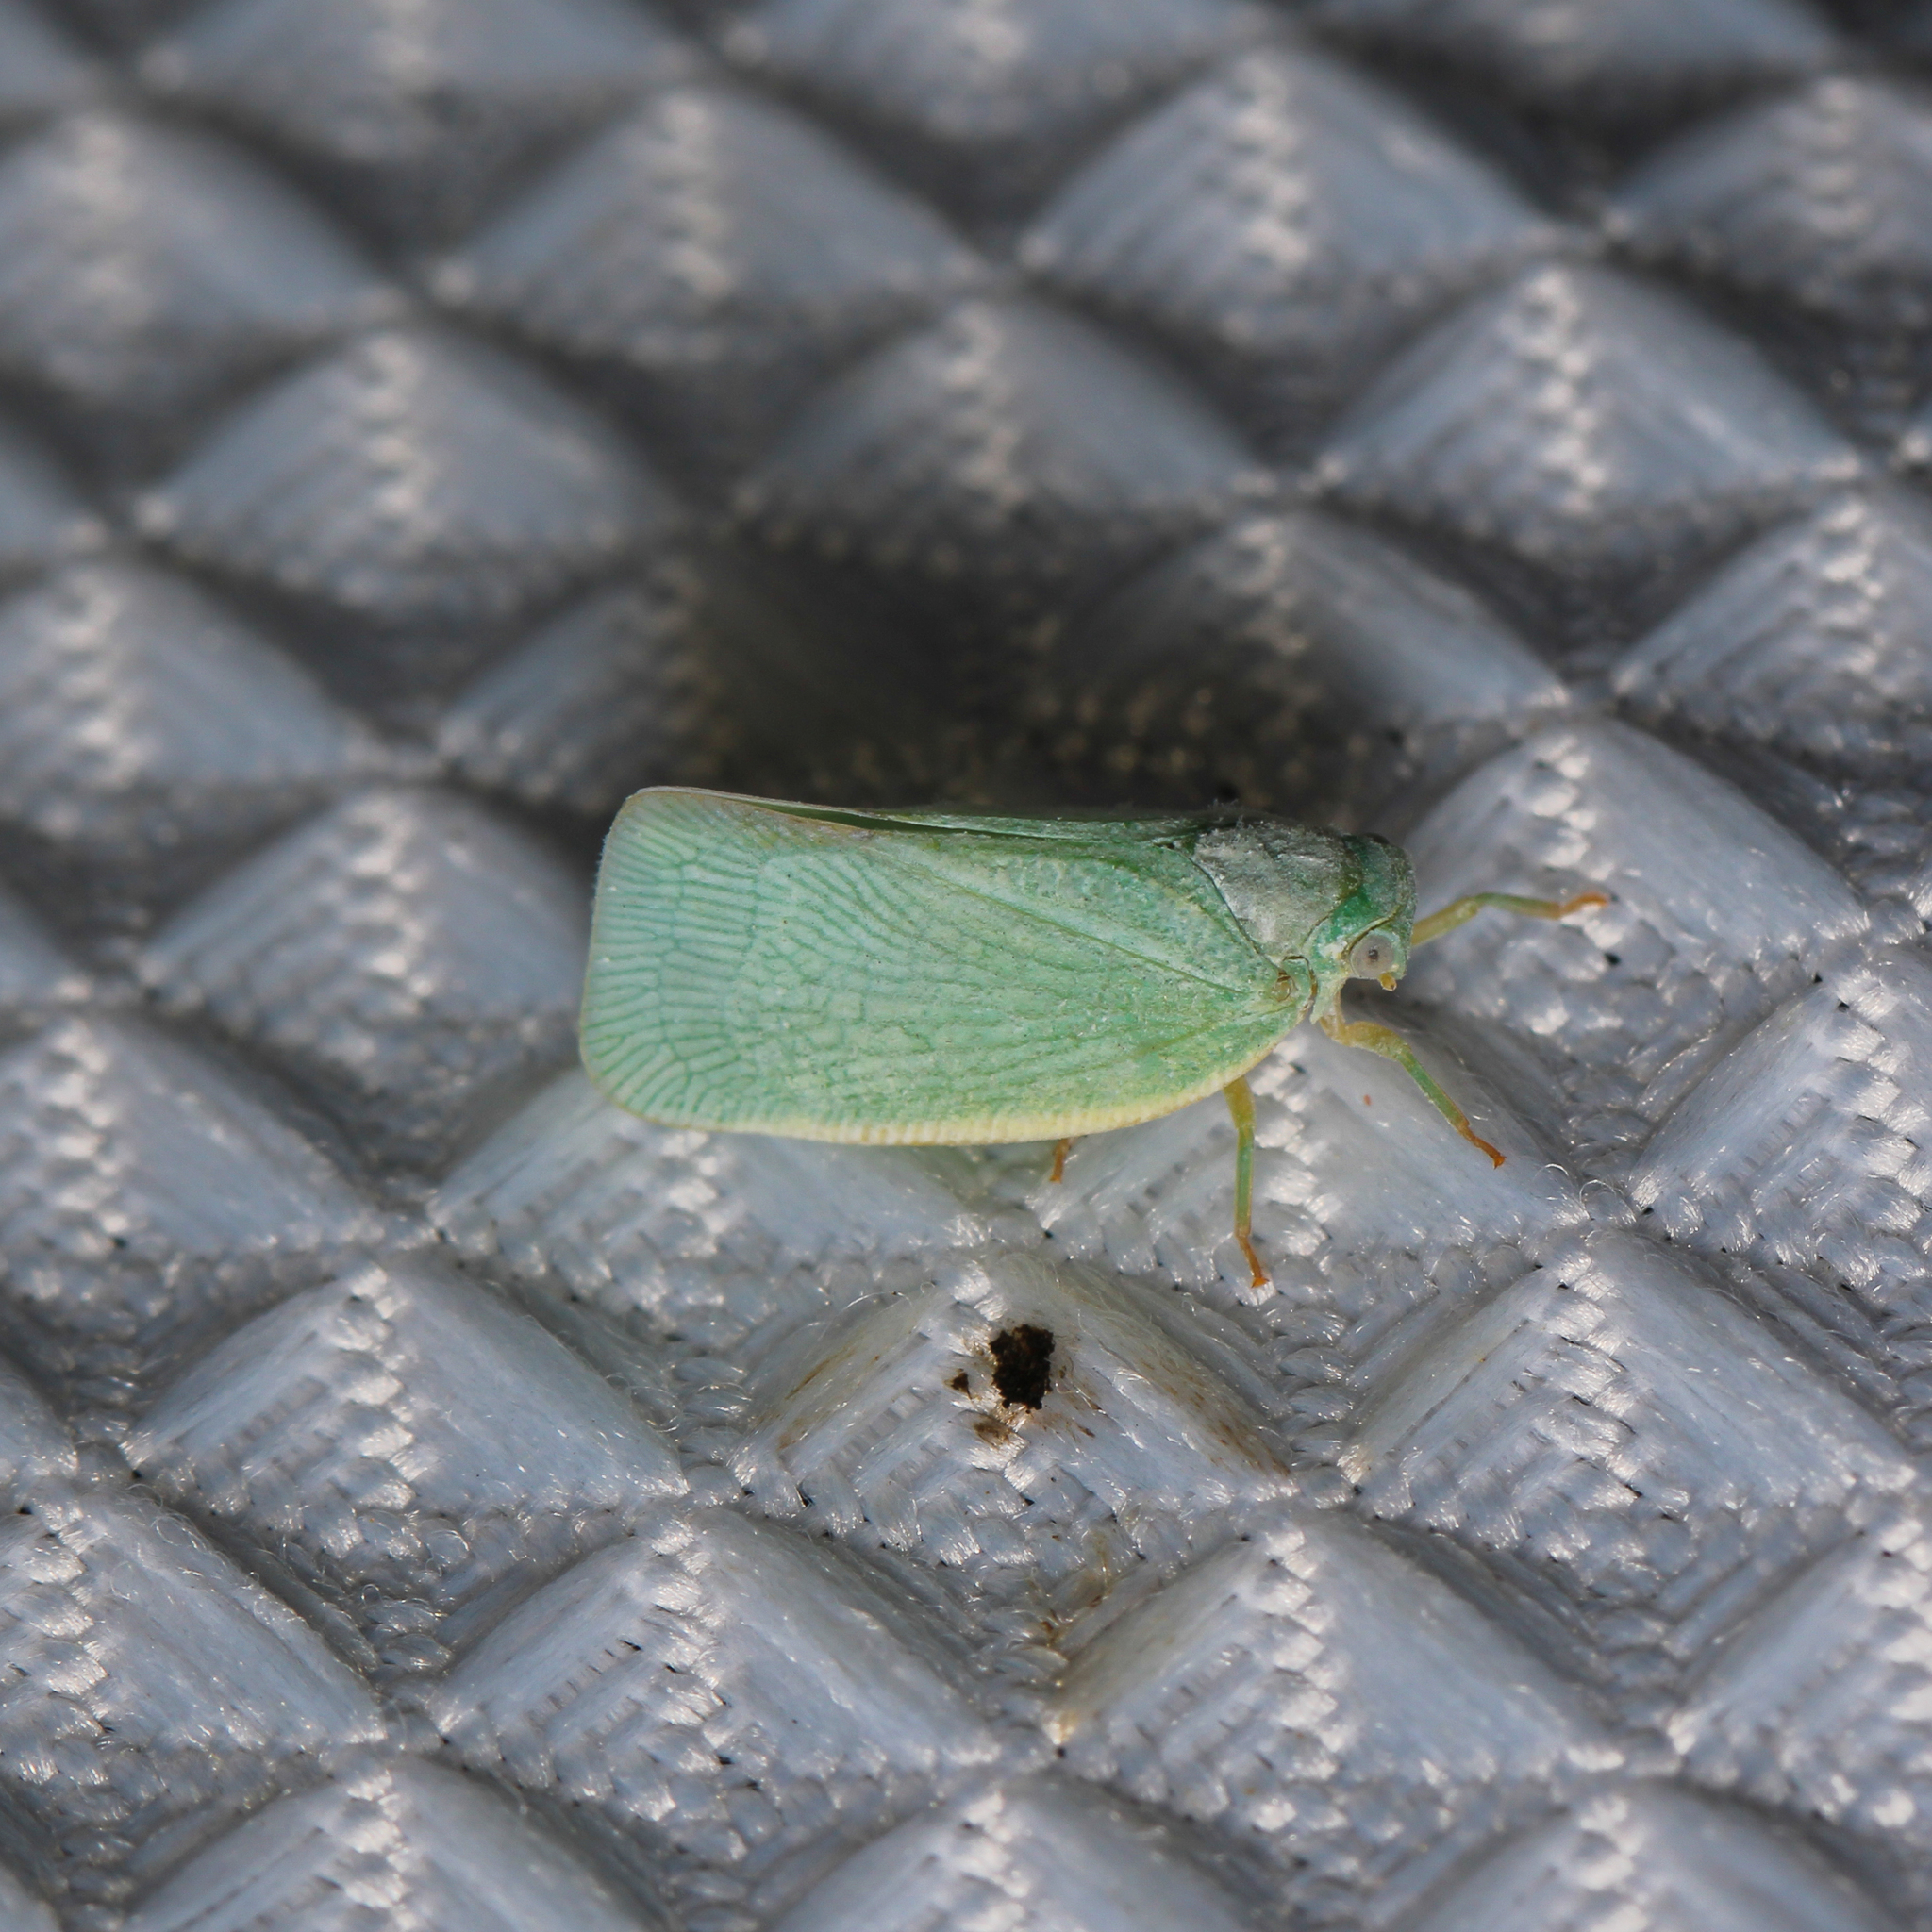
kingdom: Animalia
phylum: Arthropoda
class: Insecta
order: Hemiptera
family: Flatidae
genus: Flatormenis
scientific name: Flatormenis proxima
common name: Northern flatid planthopper
